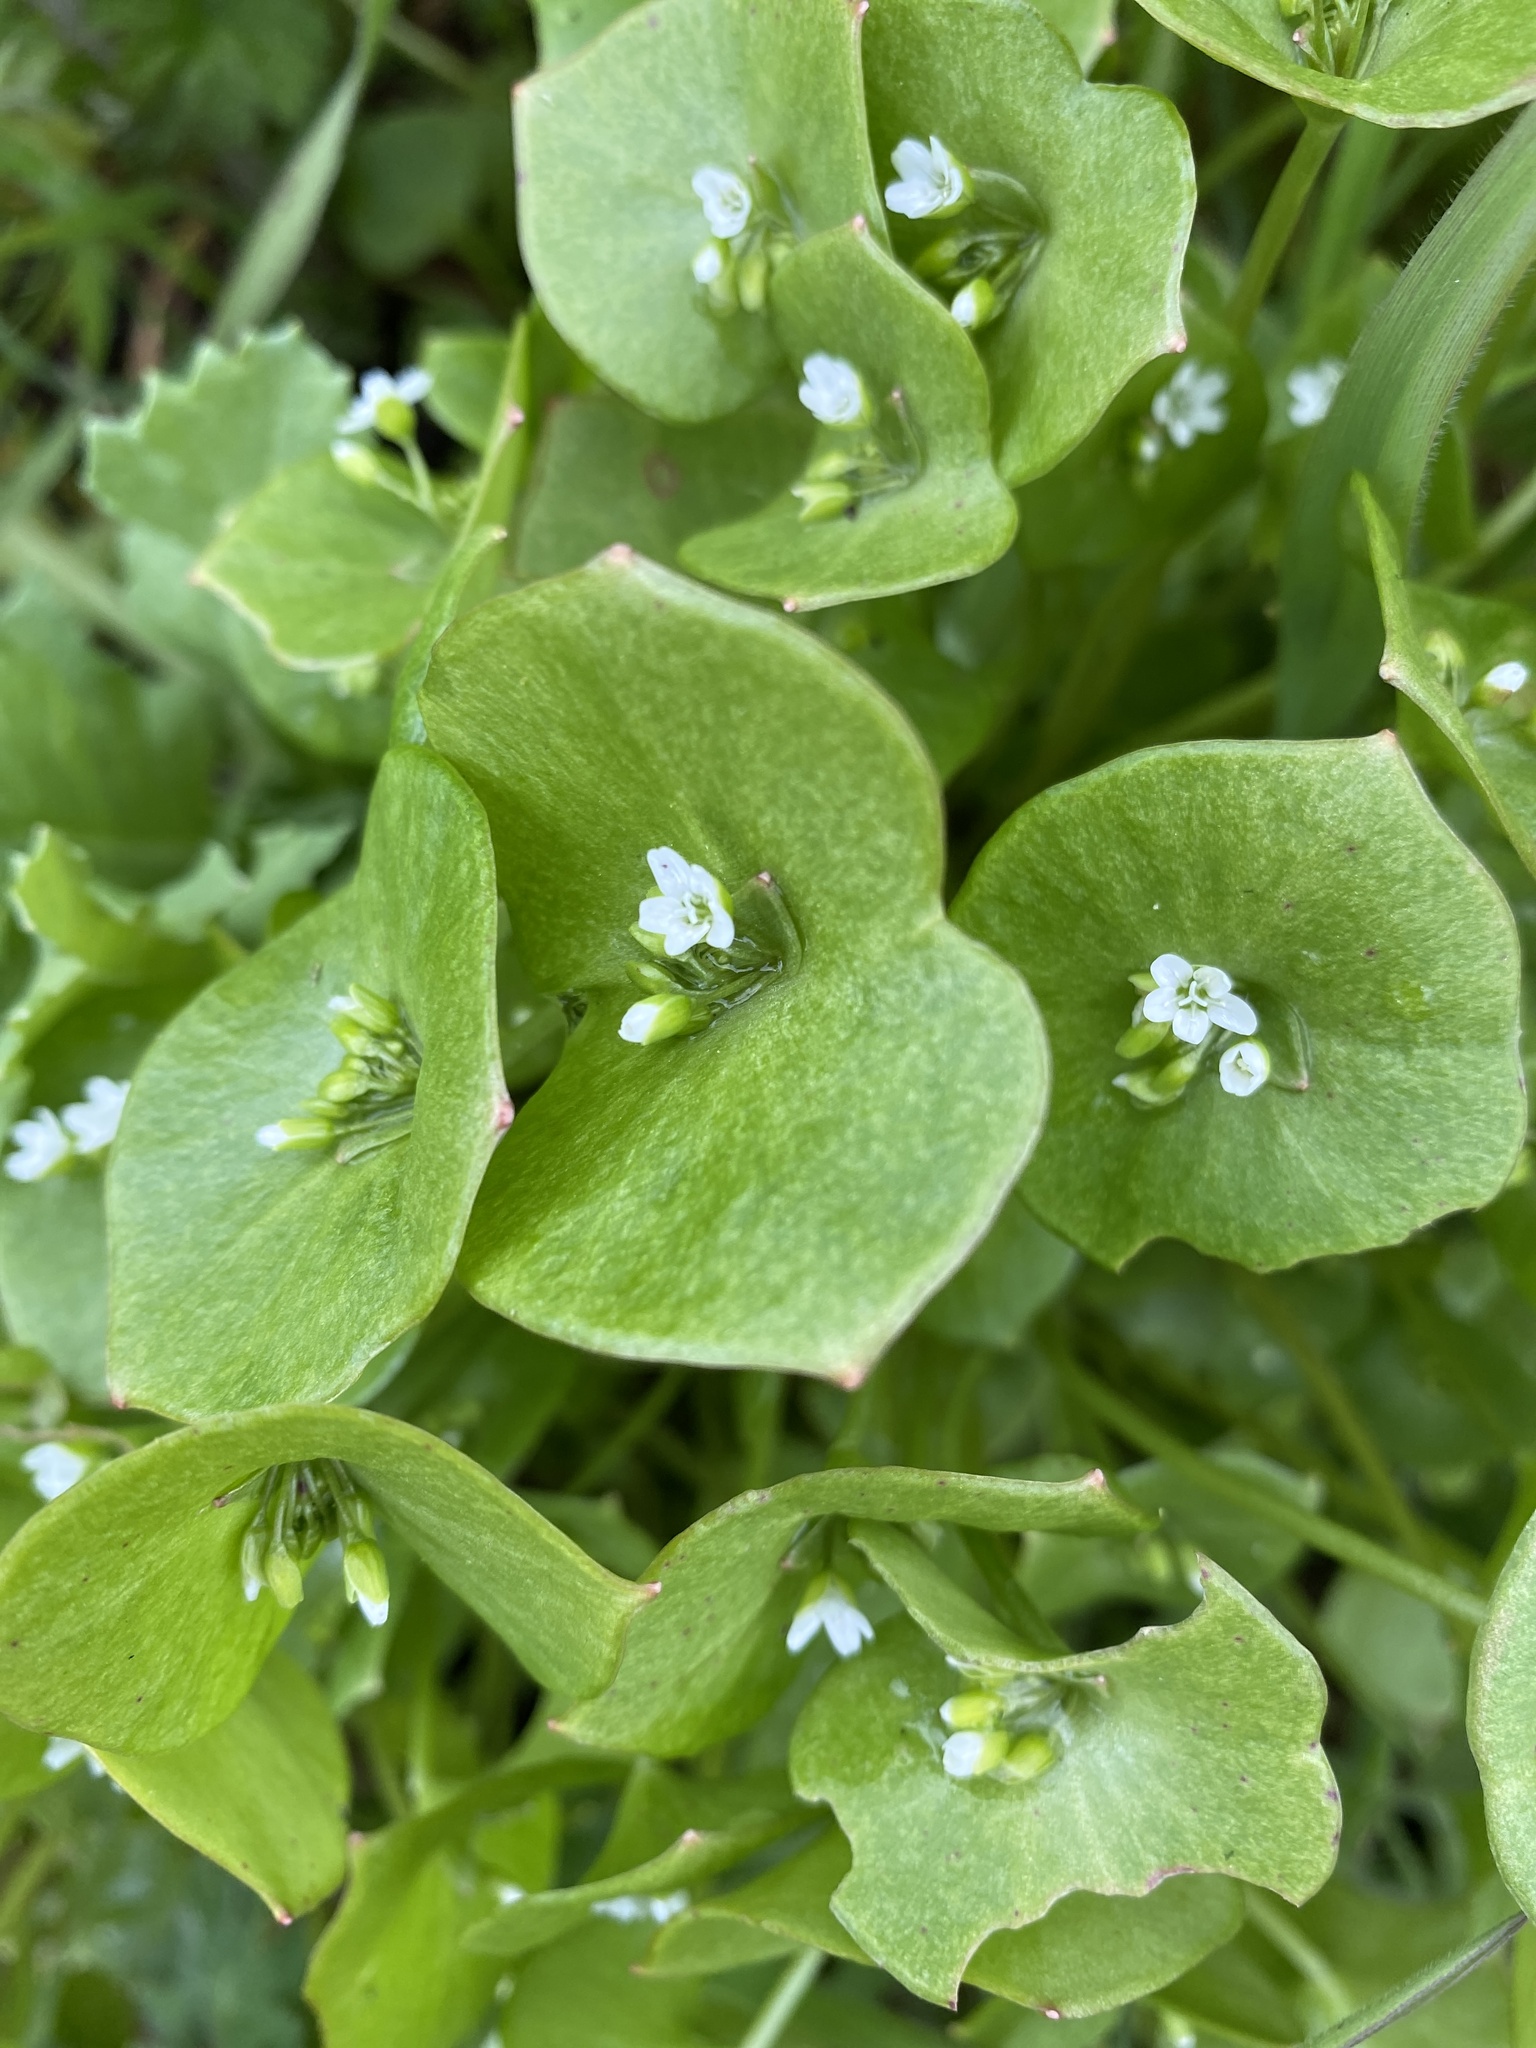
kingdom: Plantae
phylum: Tracheophyta
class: Magnoliopsida
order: Caryophyllales
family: Montiaceae
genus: Claytonia
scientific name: Claytonia perfoliata
